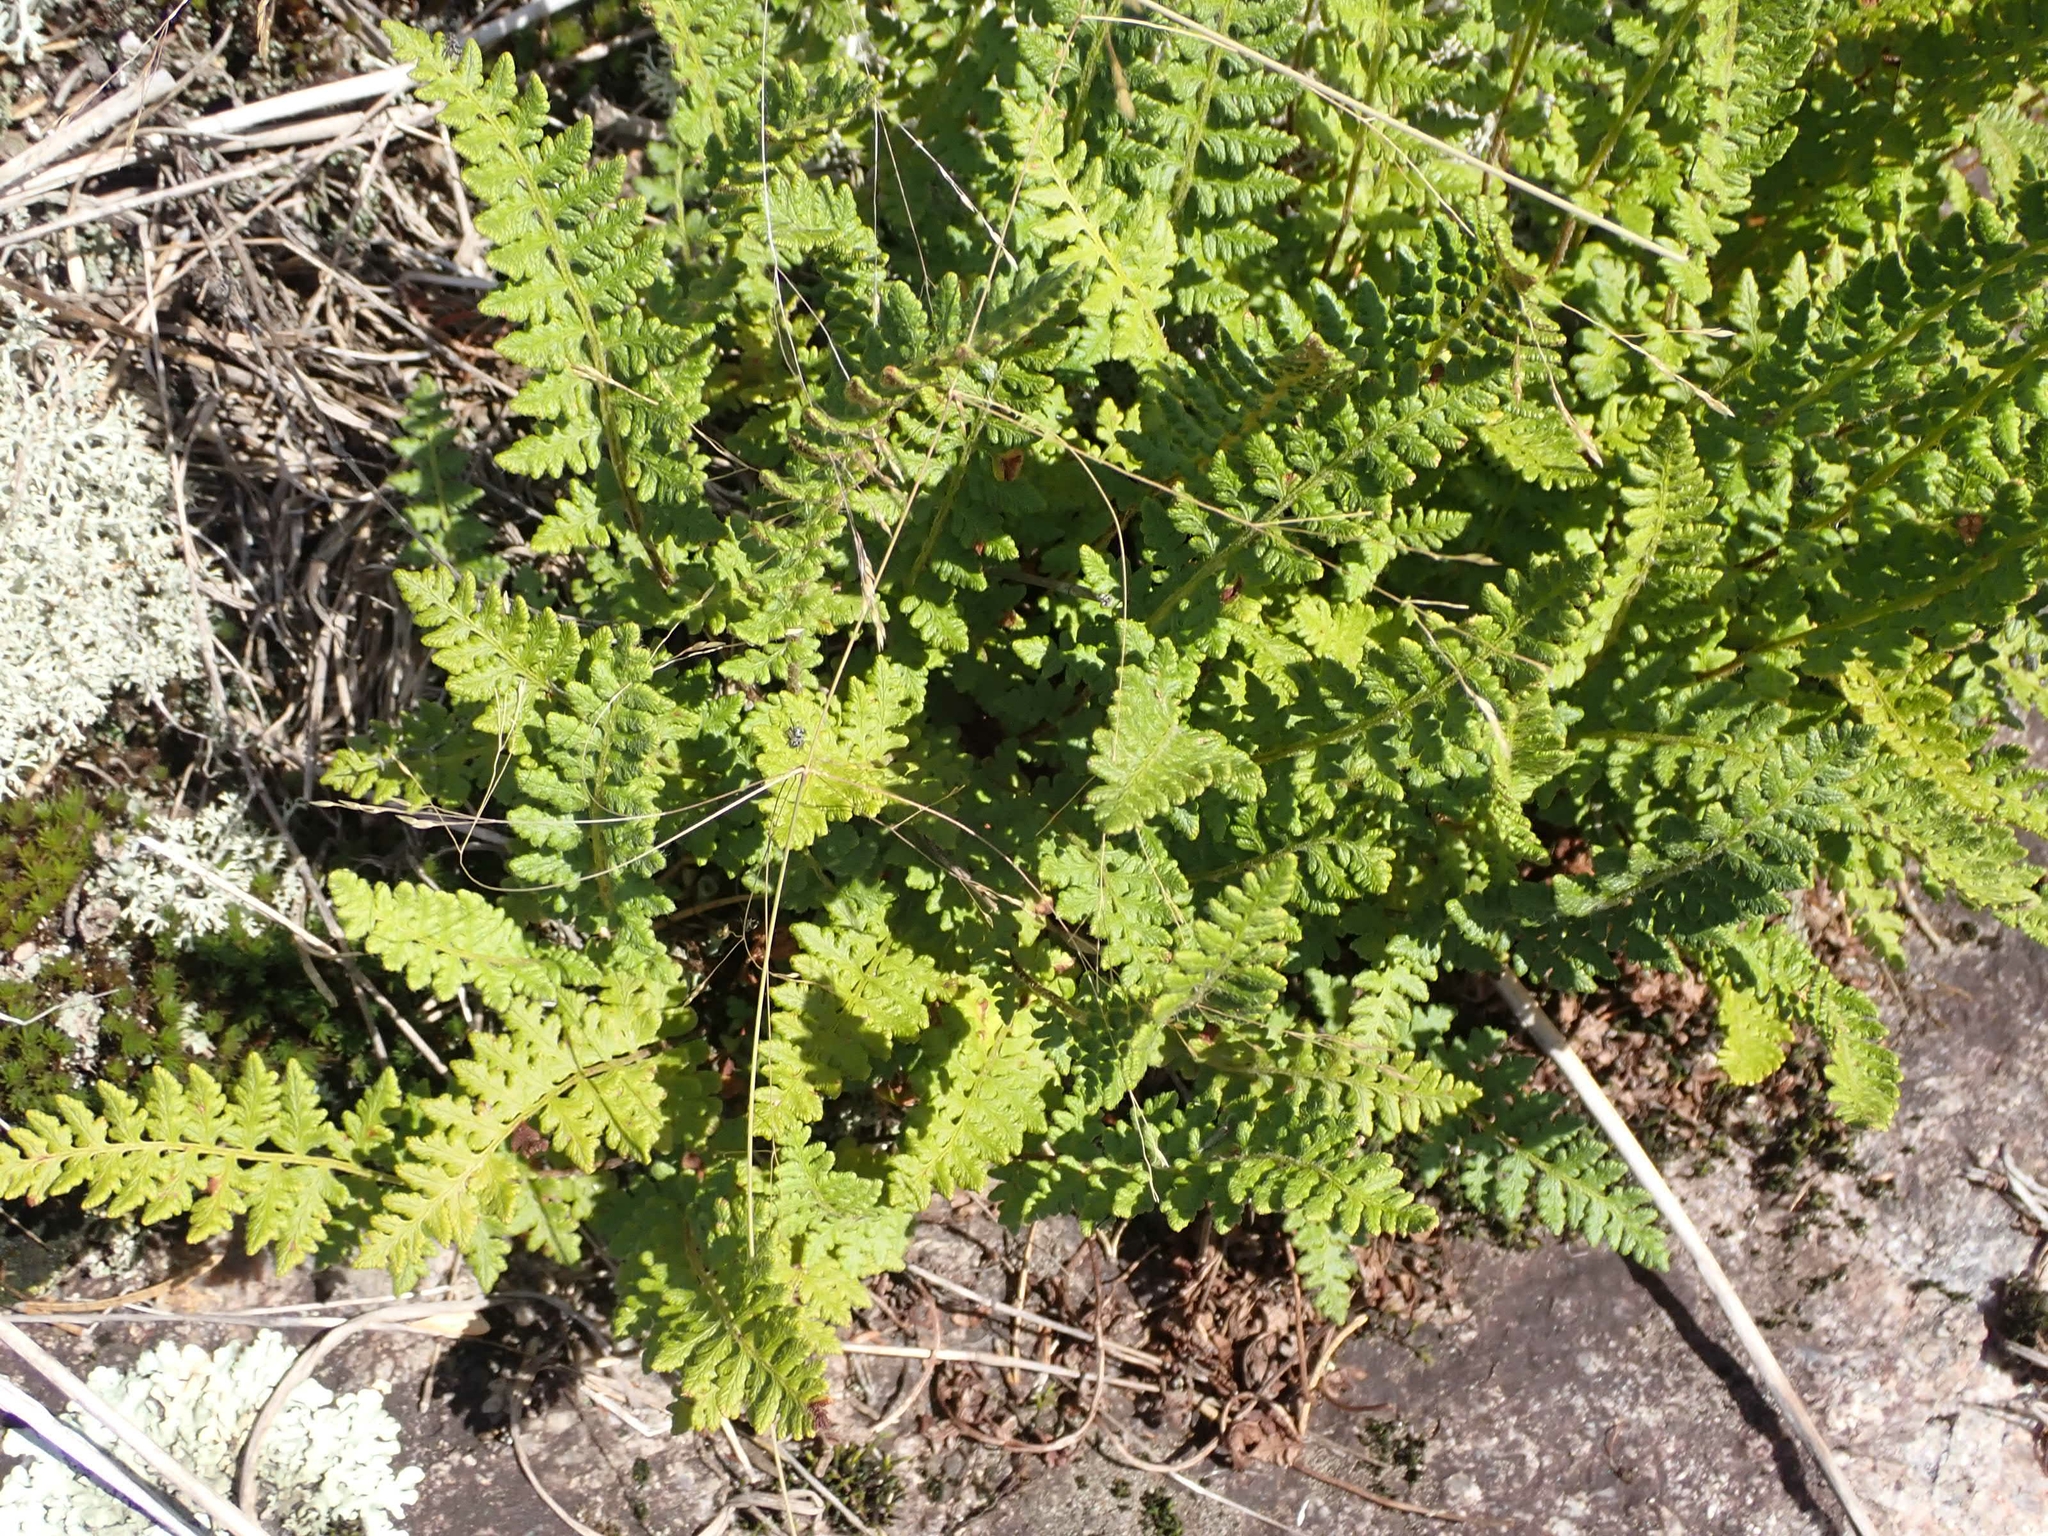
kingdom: Plantae
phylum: Tracheophyta
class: Polypodiopsida
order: Polypodiales
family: Woodsiaceae
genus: Woodsia
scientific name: Woodsia ilvensis
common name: Fragrant woodsia
